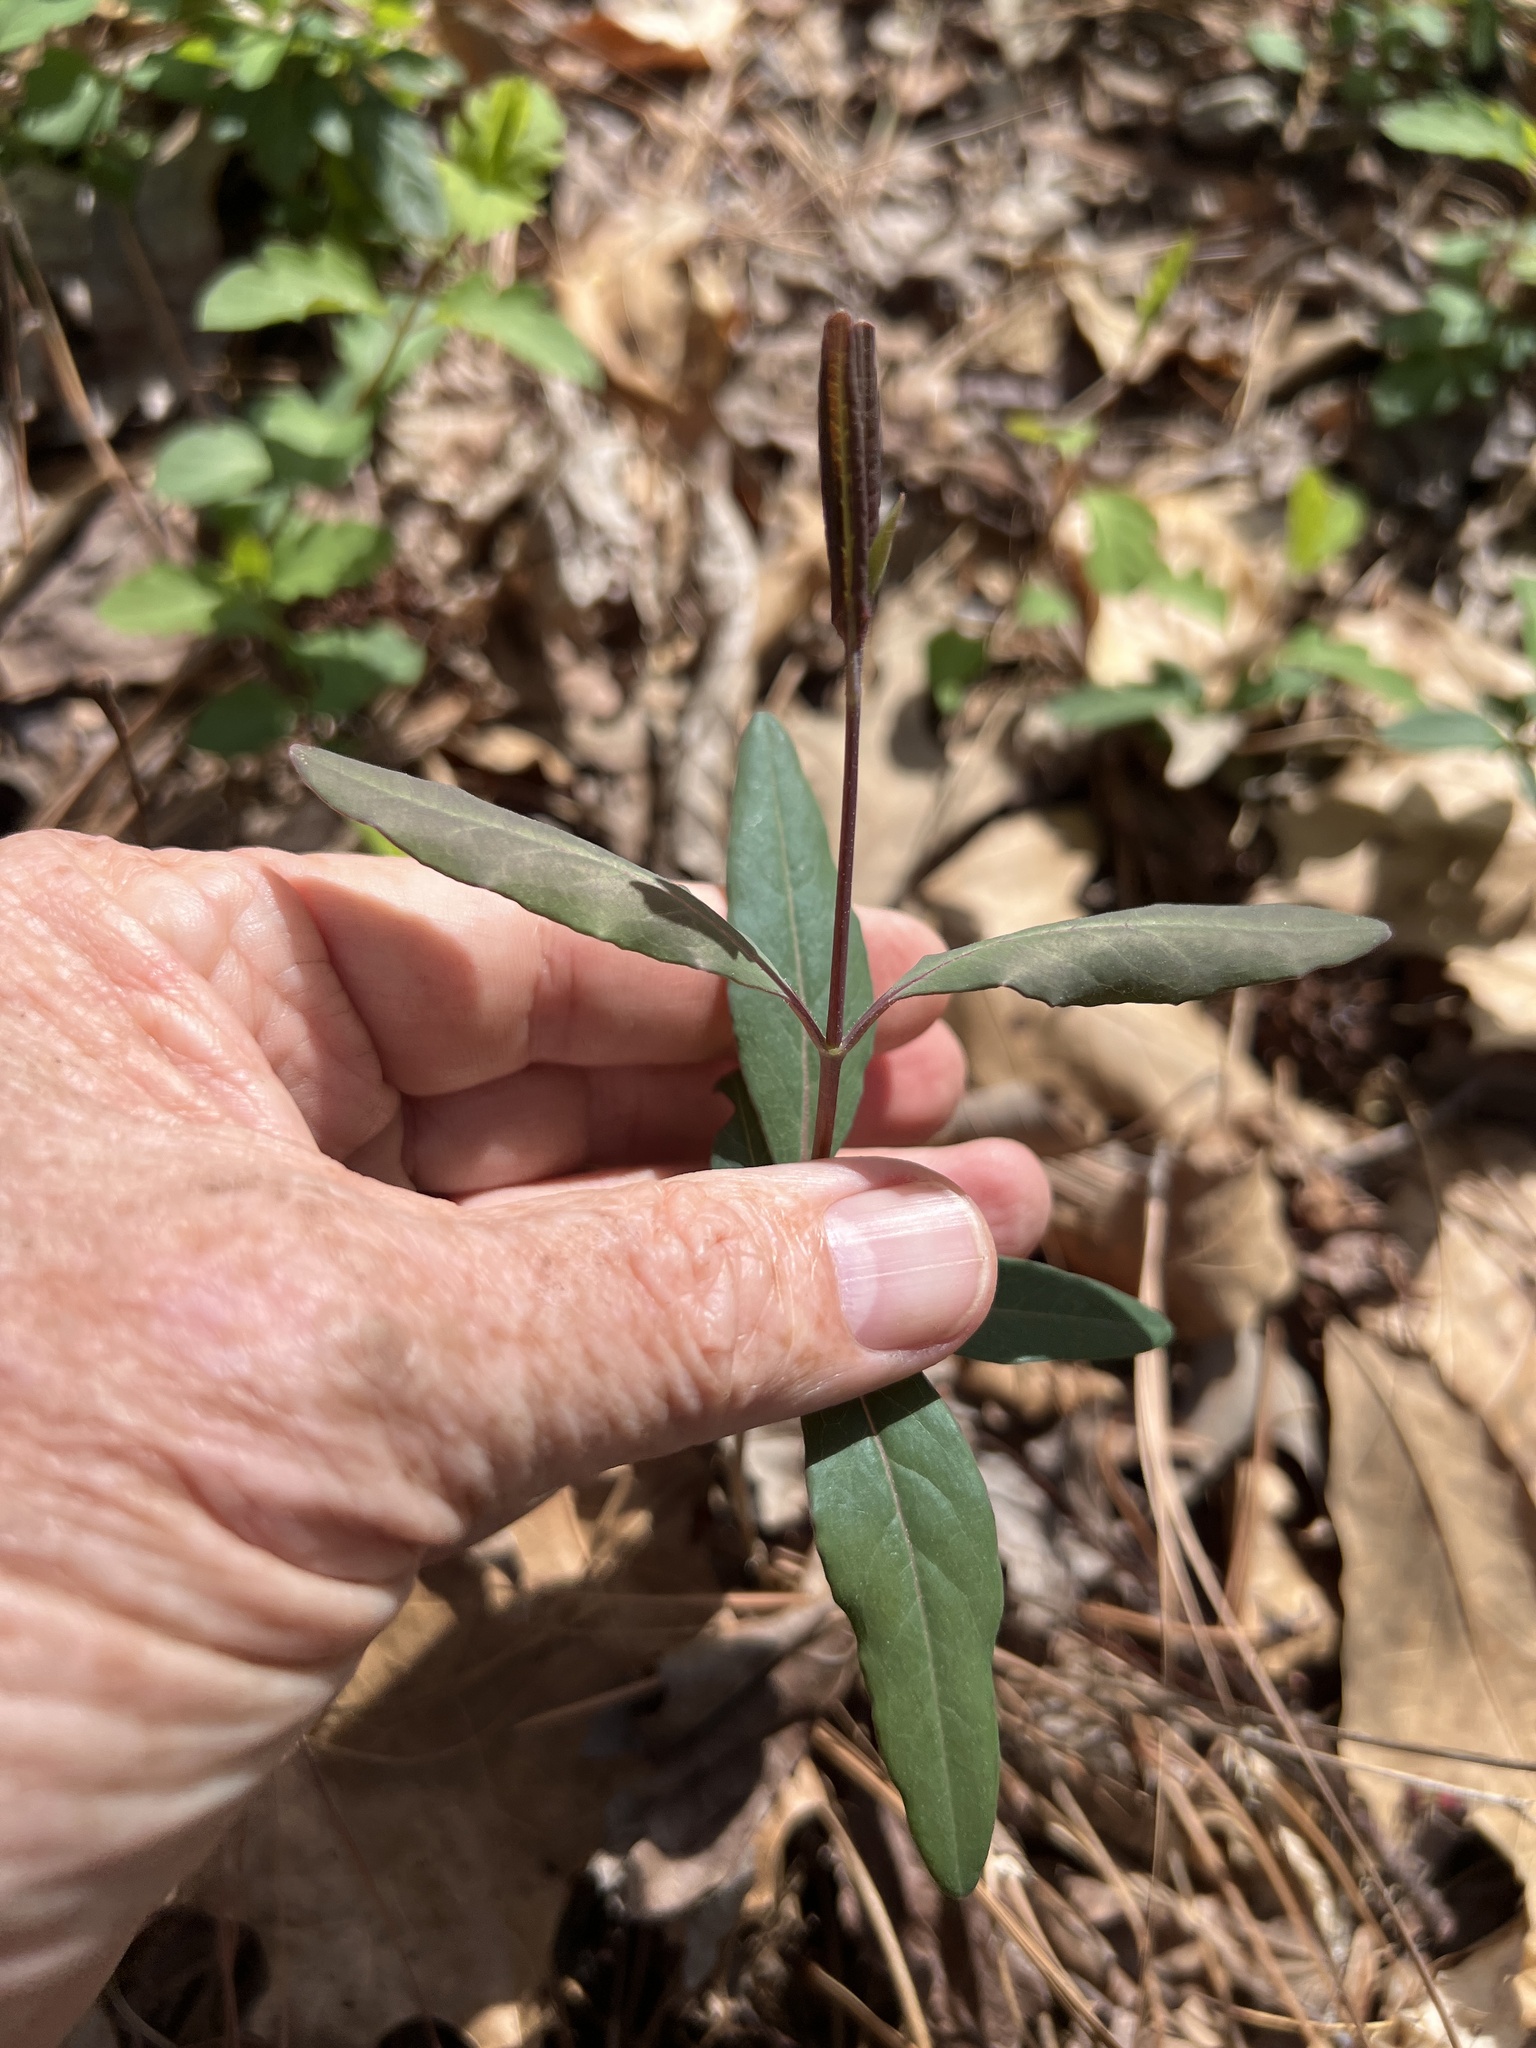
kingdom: Plantae
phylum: Tracheophyta
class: Magnoliopsida
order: Dipsacales
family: Caprifoliaceae
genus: Lonicera
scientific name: Lonicera sempervirens
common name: Coral honeysuckle
